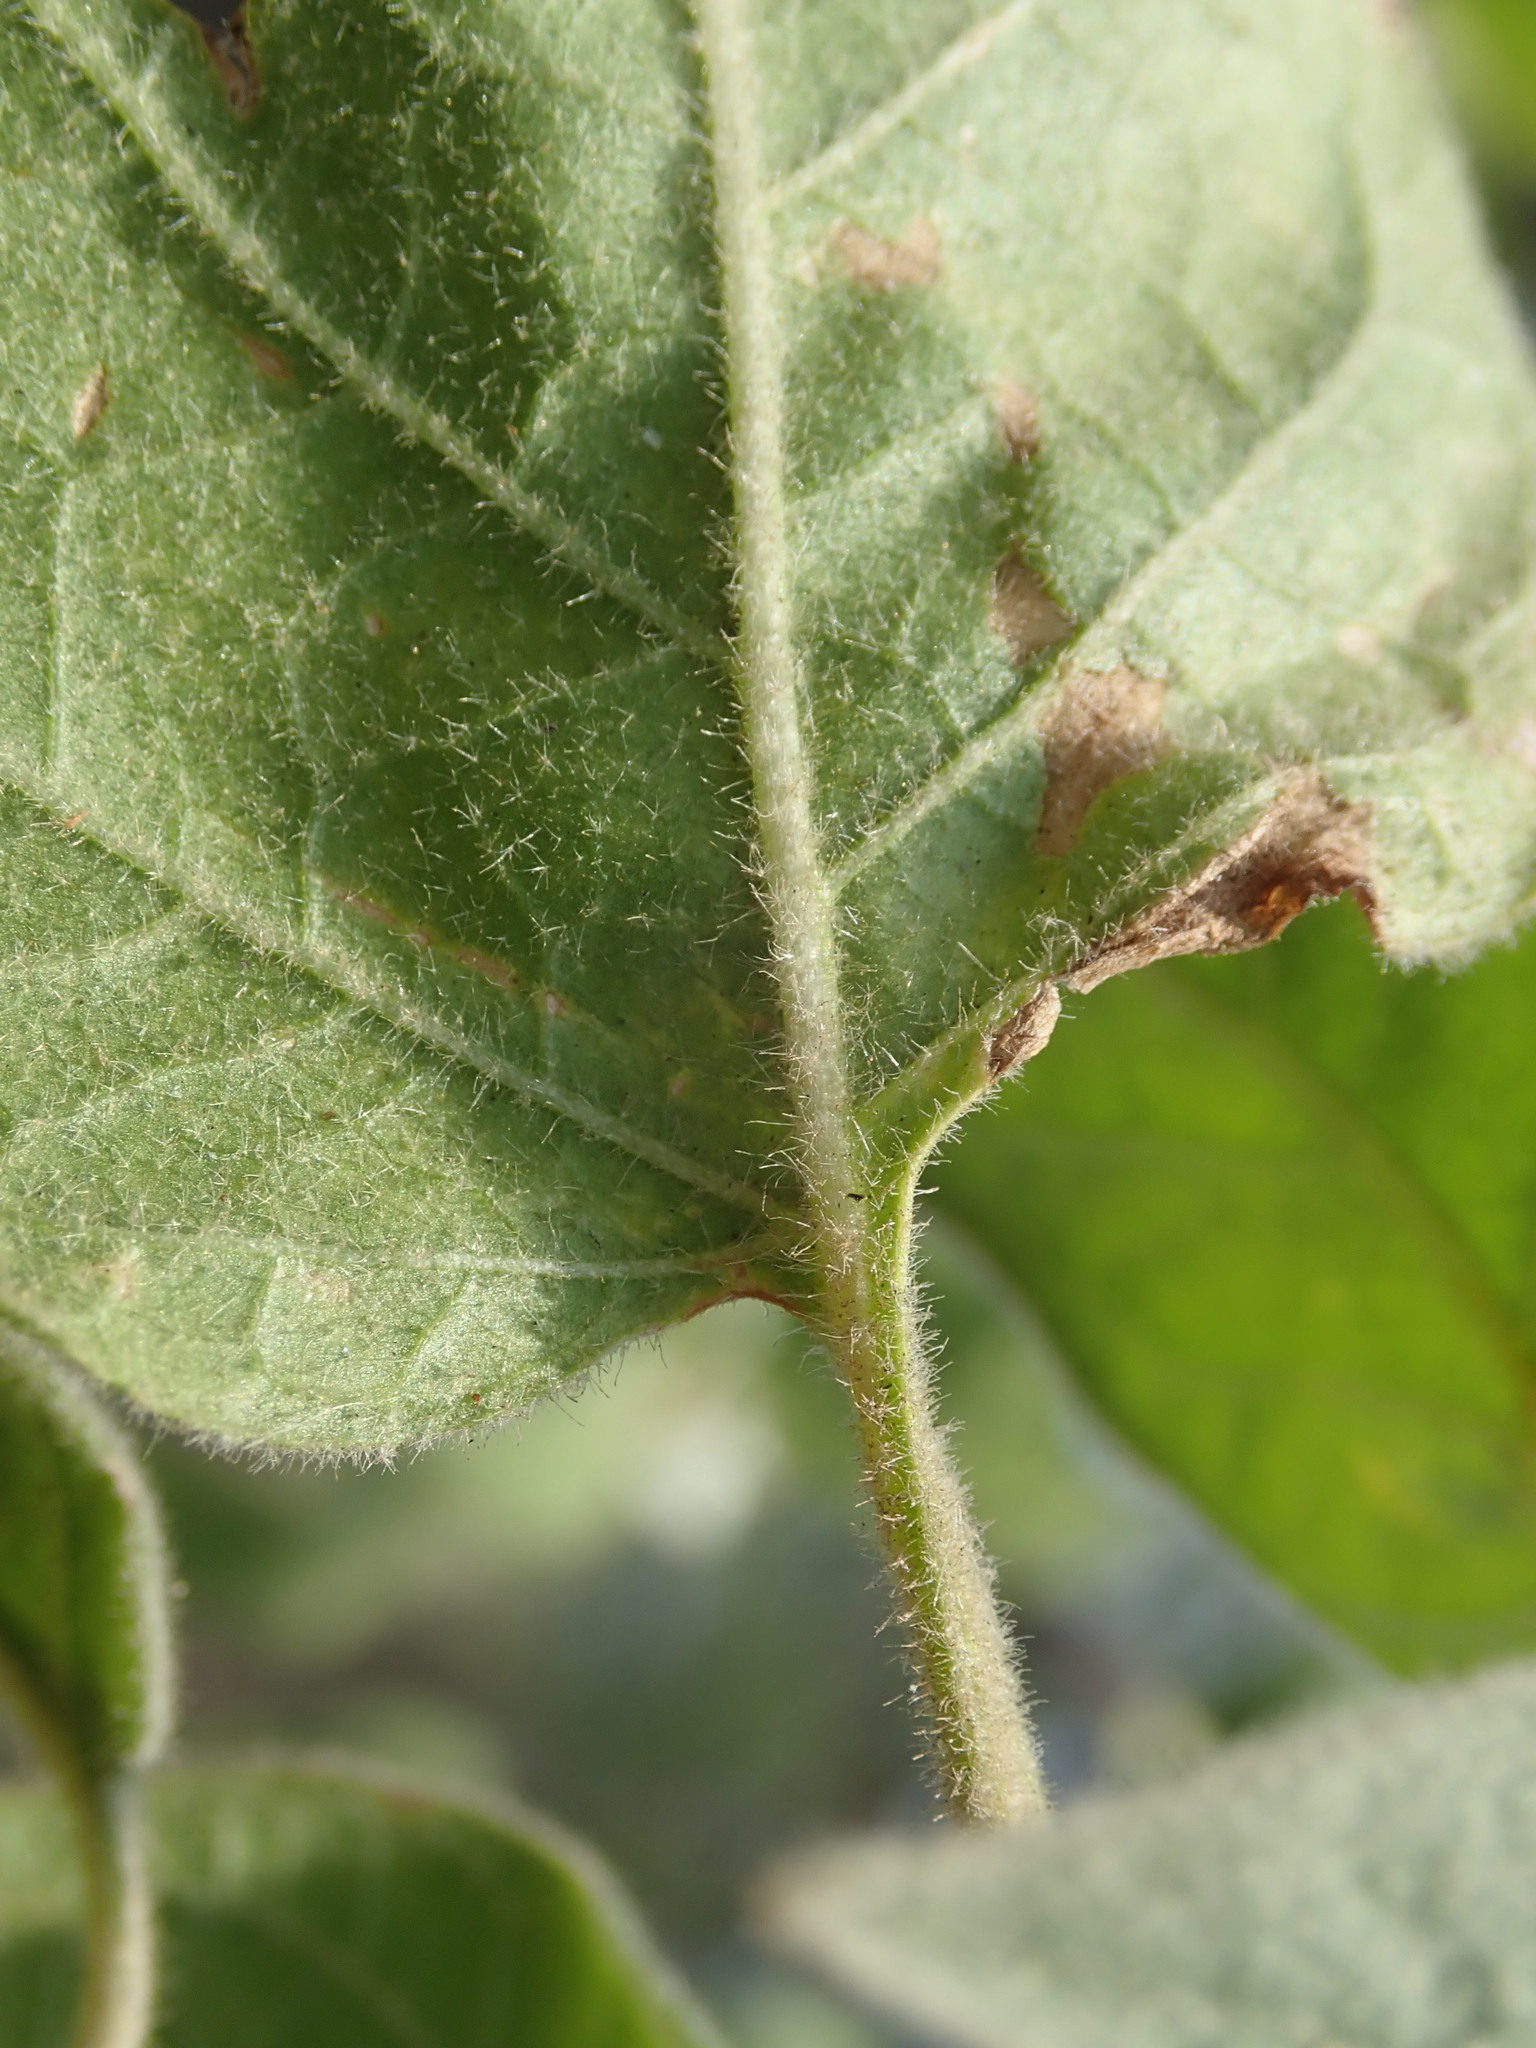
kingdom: Plantae
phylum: Tracheophyta
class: Magnoliopsida
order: Solanales
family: Solanaceae
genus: Solanum
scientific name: Solanum pubescens
